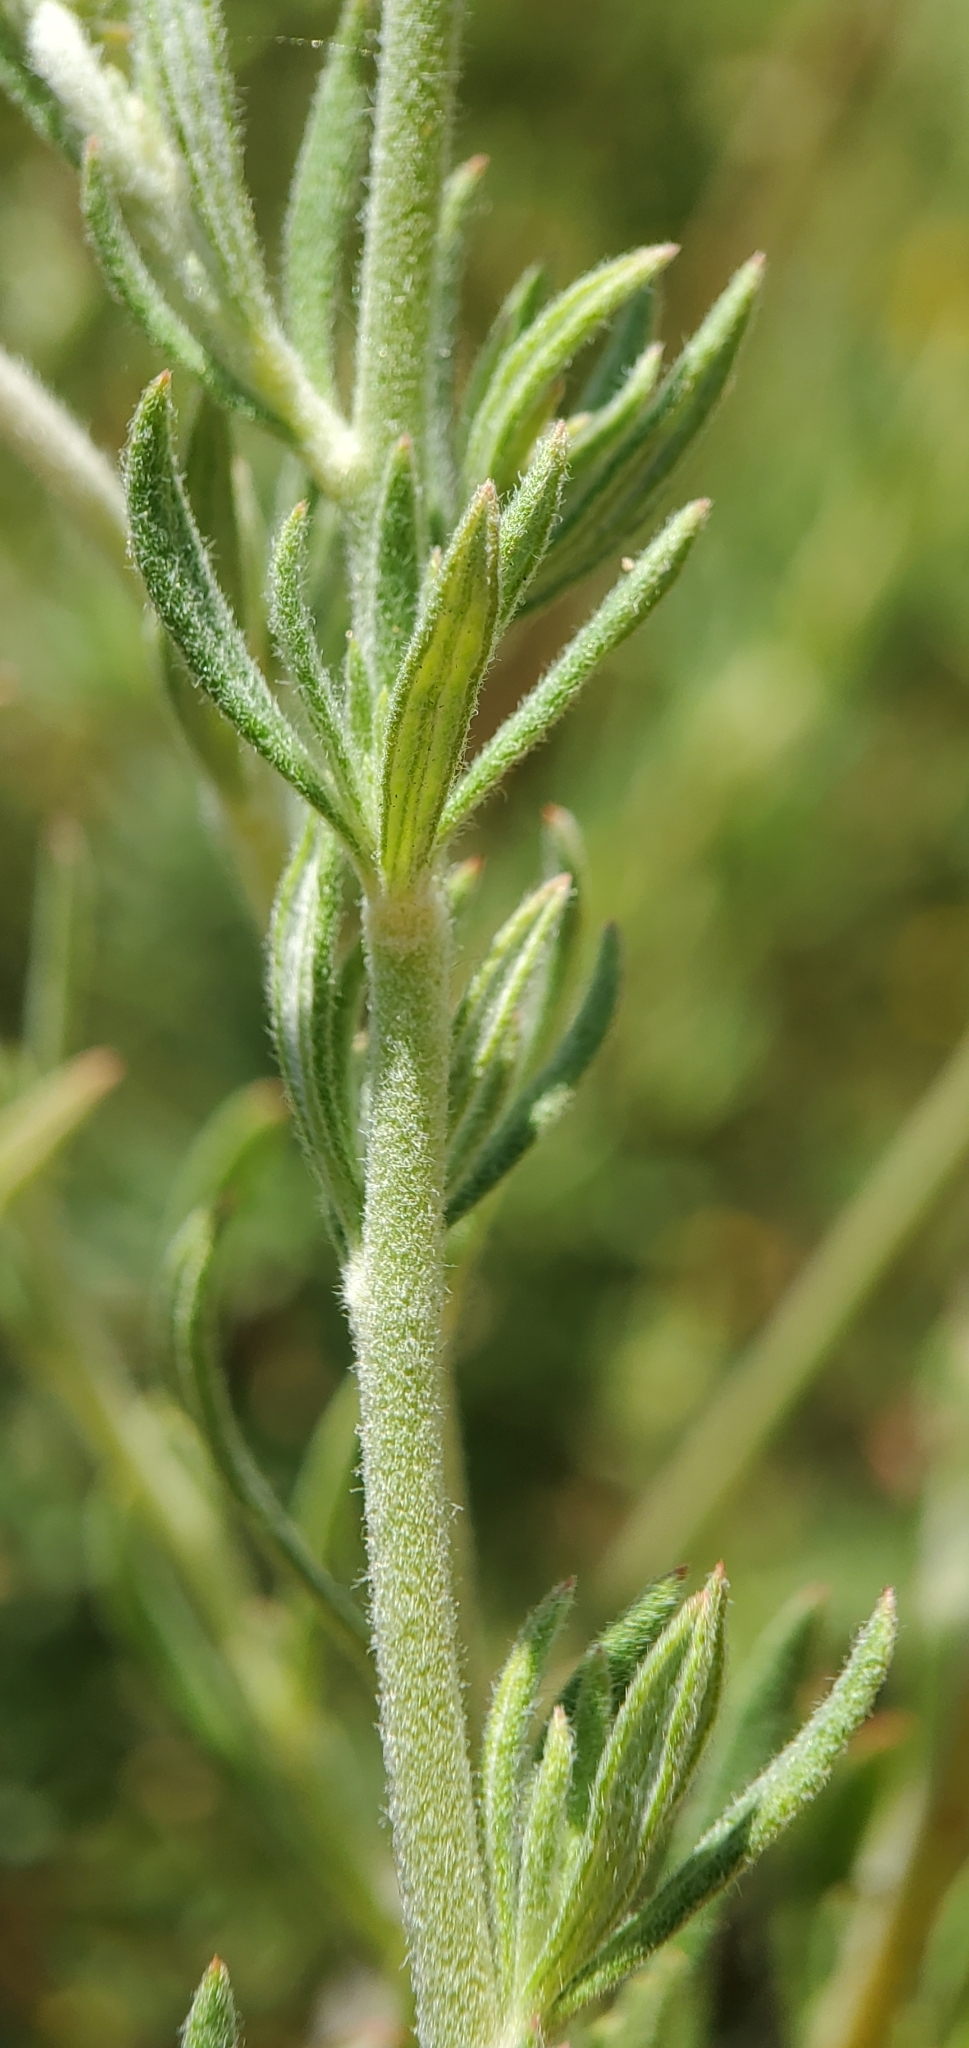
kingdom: Plantae
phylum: Tracheophyta
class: Magnoliopsida
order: Caryophyllales
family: Polygonaceae
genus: Eriogonum
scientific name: Eriogonum fasciculatum
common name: California wild buckwheat
